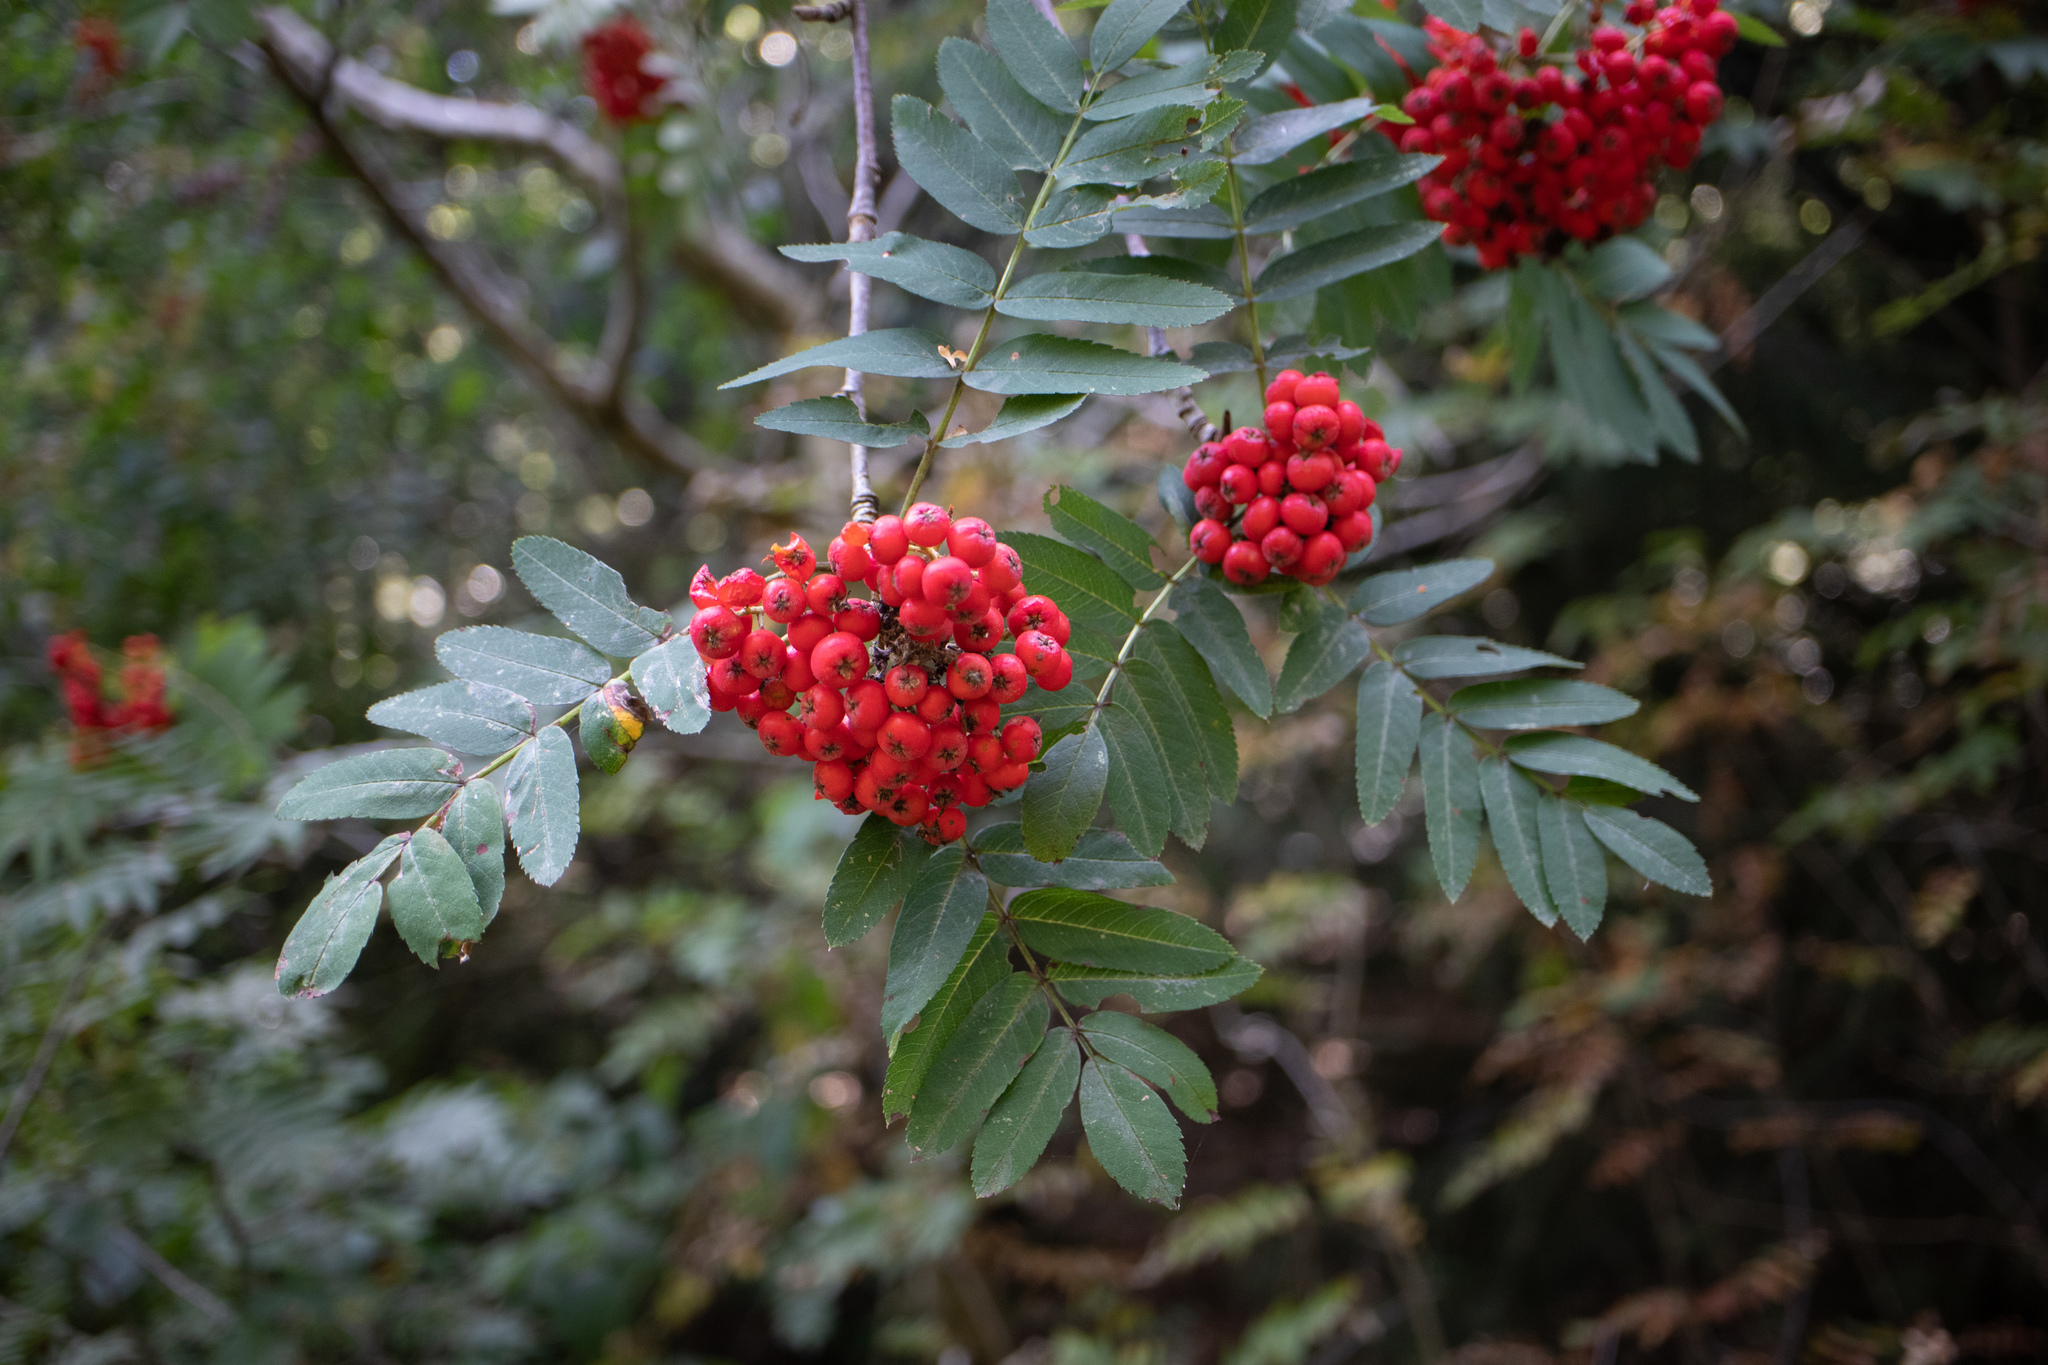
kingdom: Plantae
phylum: Tracheophyta
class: Magnoliopsida
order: Rosales
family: Rosaceae
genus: Sorbus
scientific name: Sorbus aucuparia
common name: Rowan
